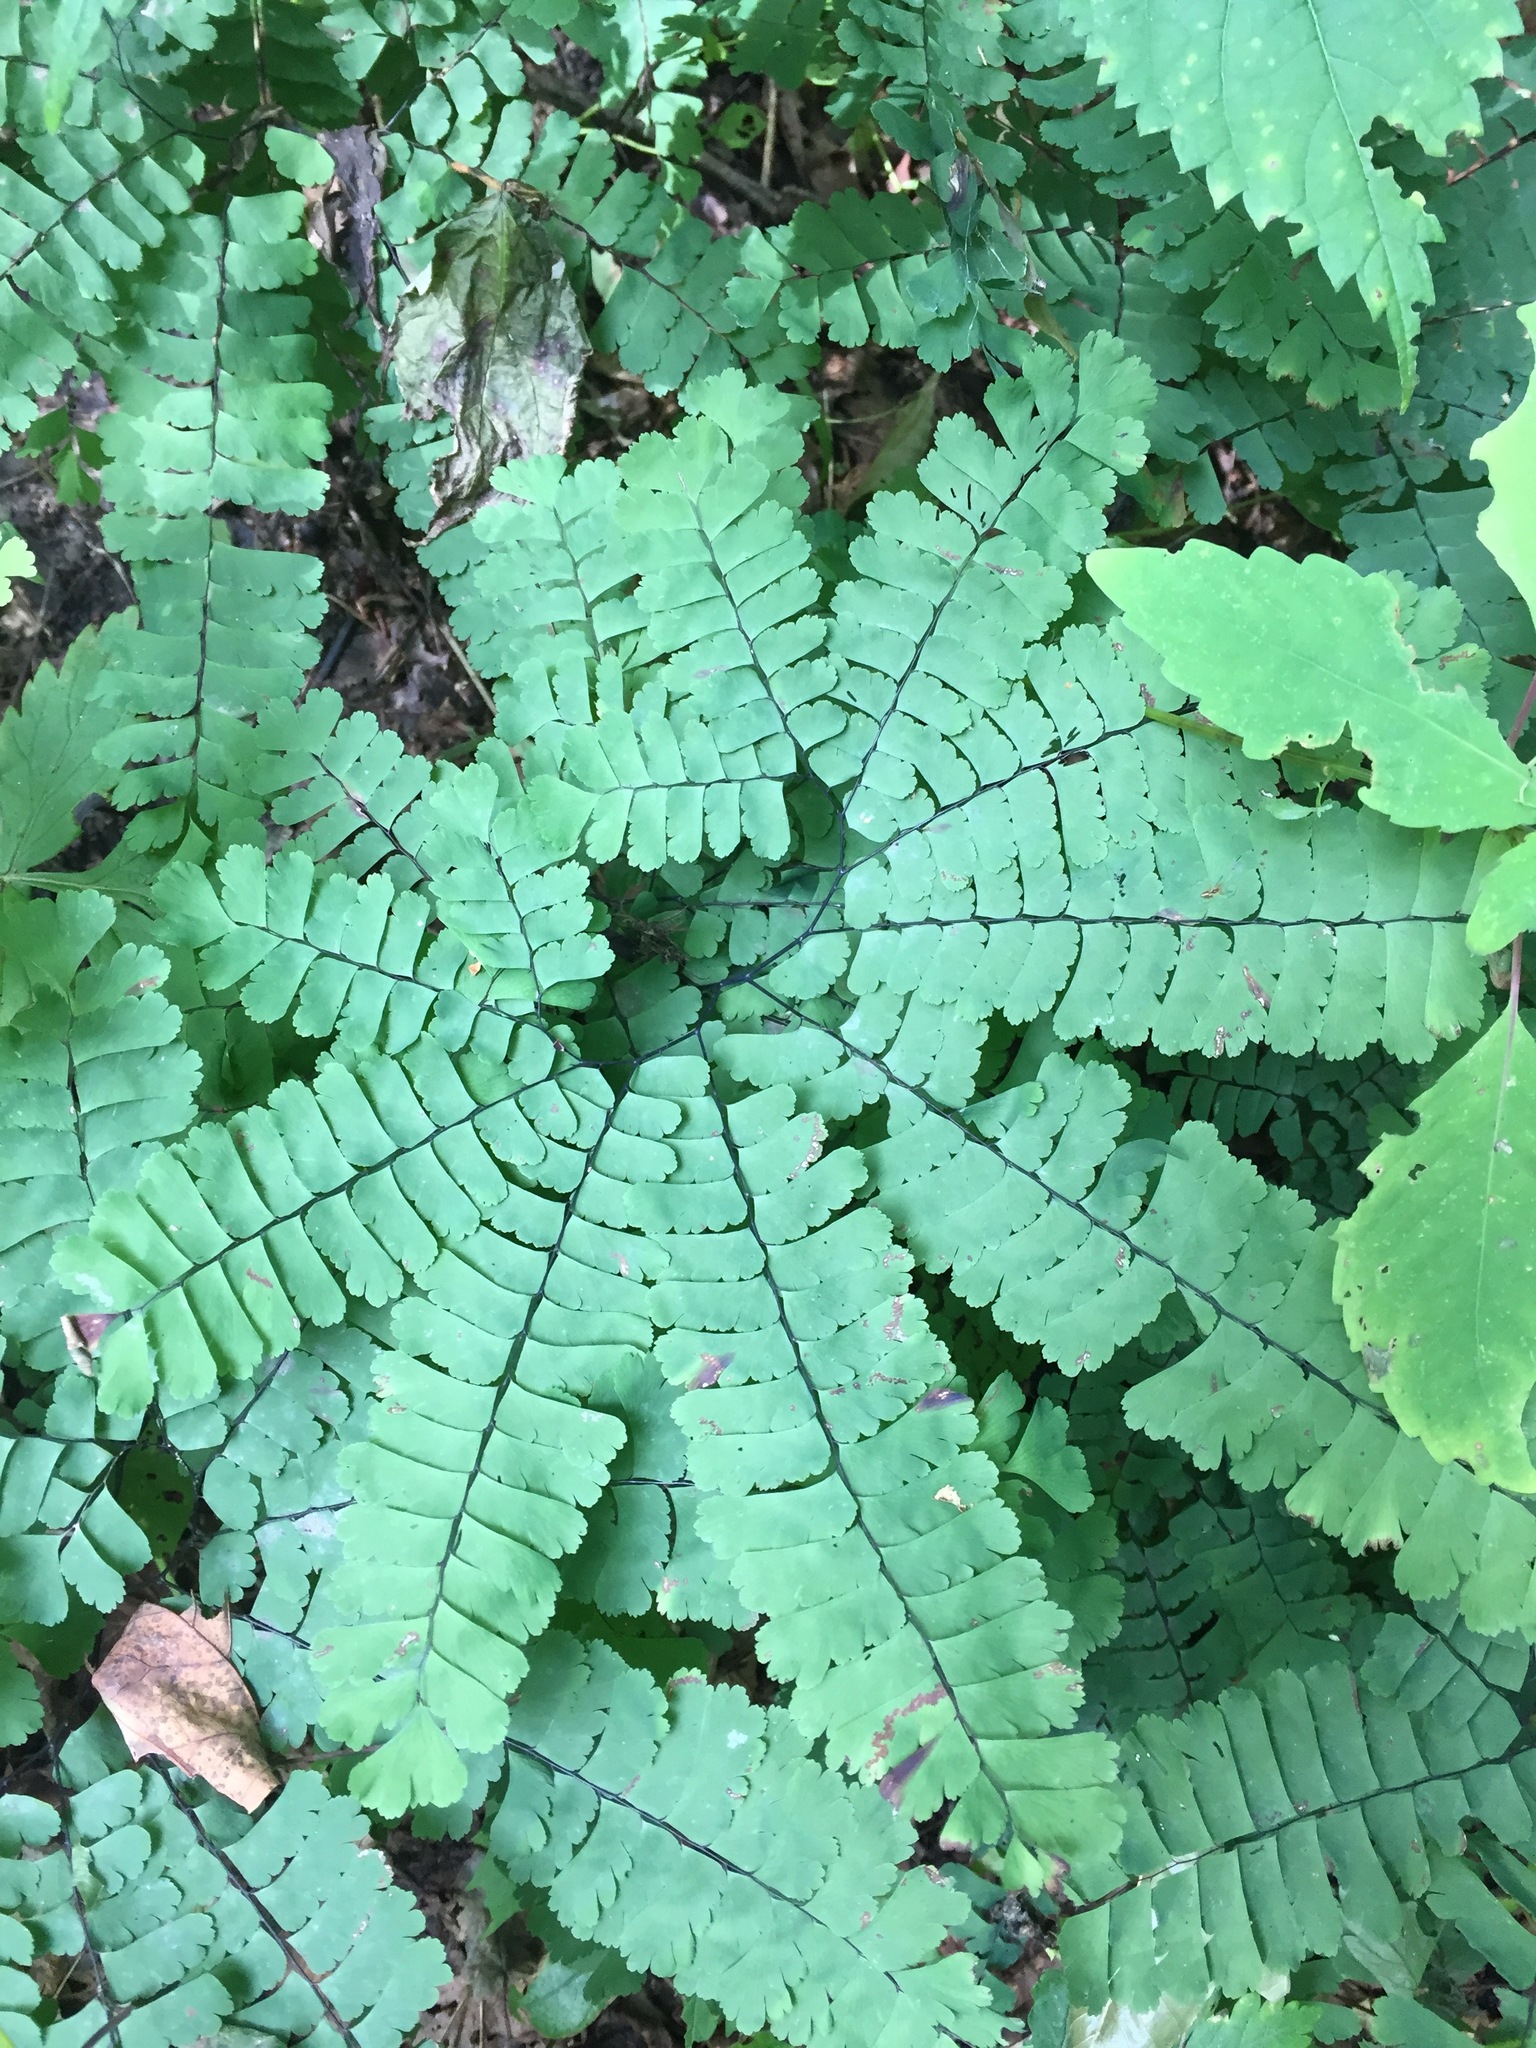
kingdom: Plantae
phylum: Tracheophyta
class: Polypodiopsida
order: Polypodiales
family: Pteridaceae
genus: Adiantum
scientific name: Adiantum pedatum
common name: Five-finger fern
